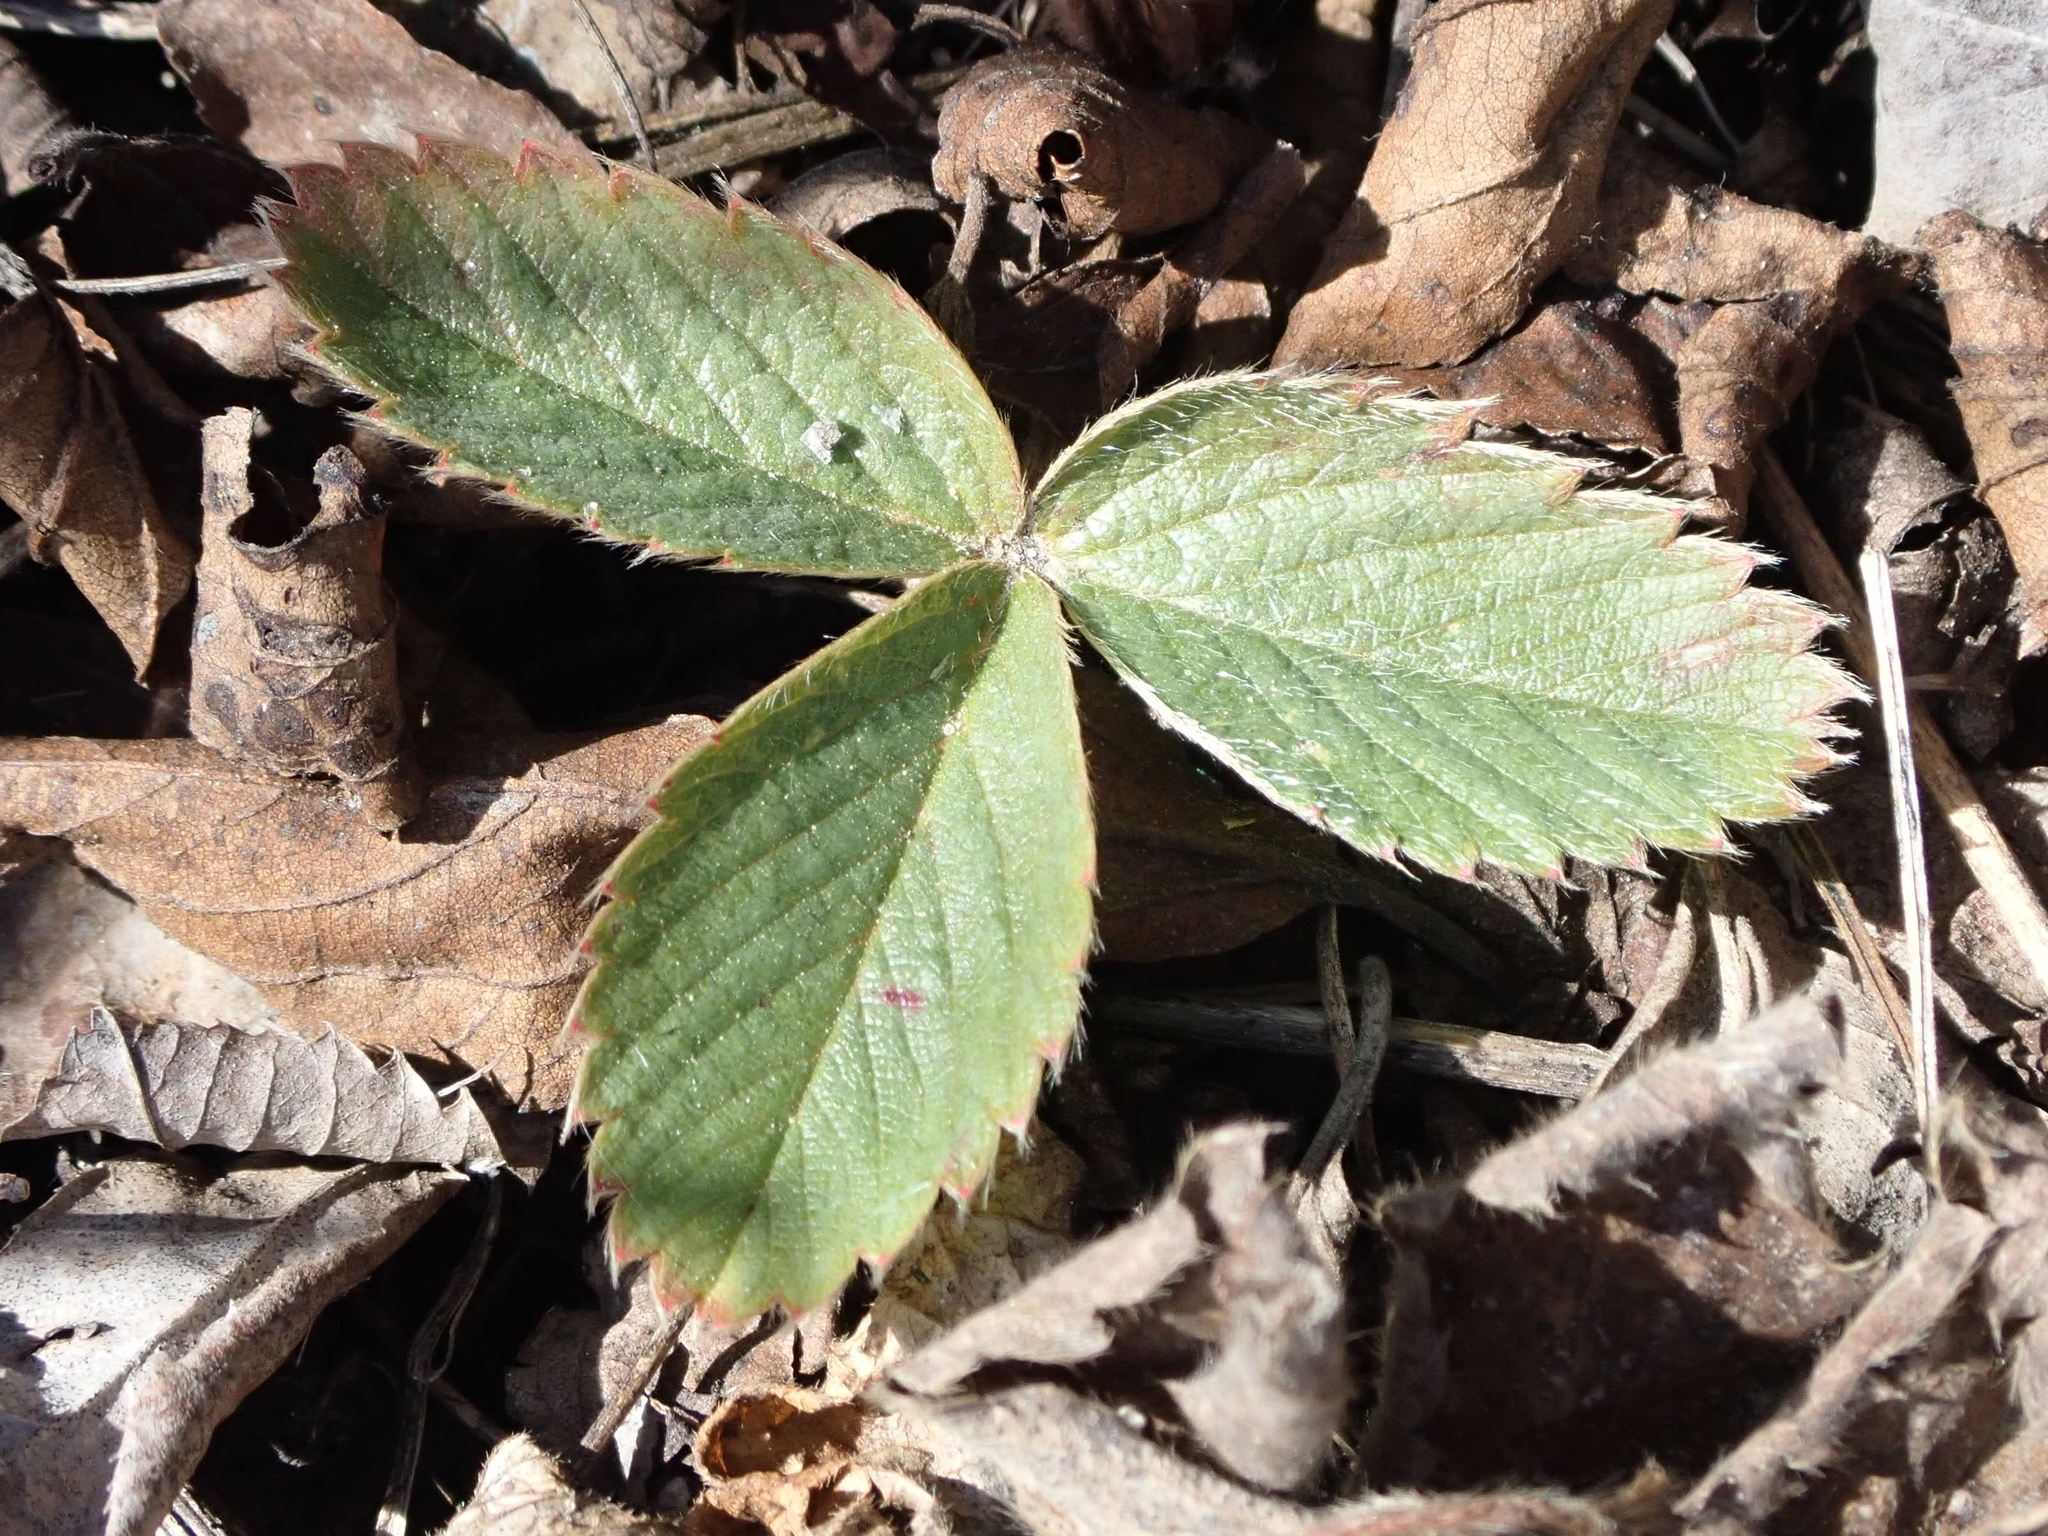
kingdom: Plantae
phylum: Tracheophyta
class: Magnoliopsida
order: Rosales
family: Rosaceae
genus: Fragaria
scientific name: Fragaria virginiana
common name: Thickleaved wild strawberry
